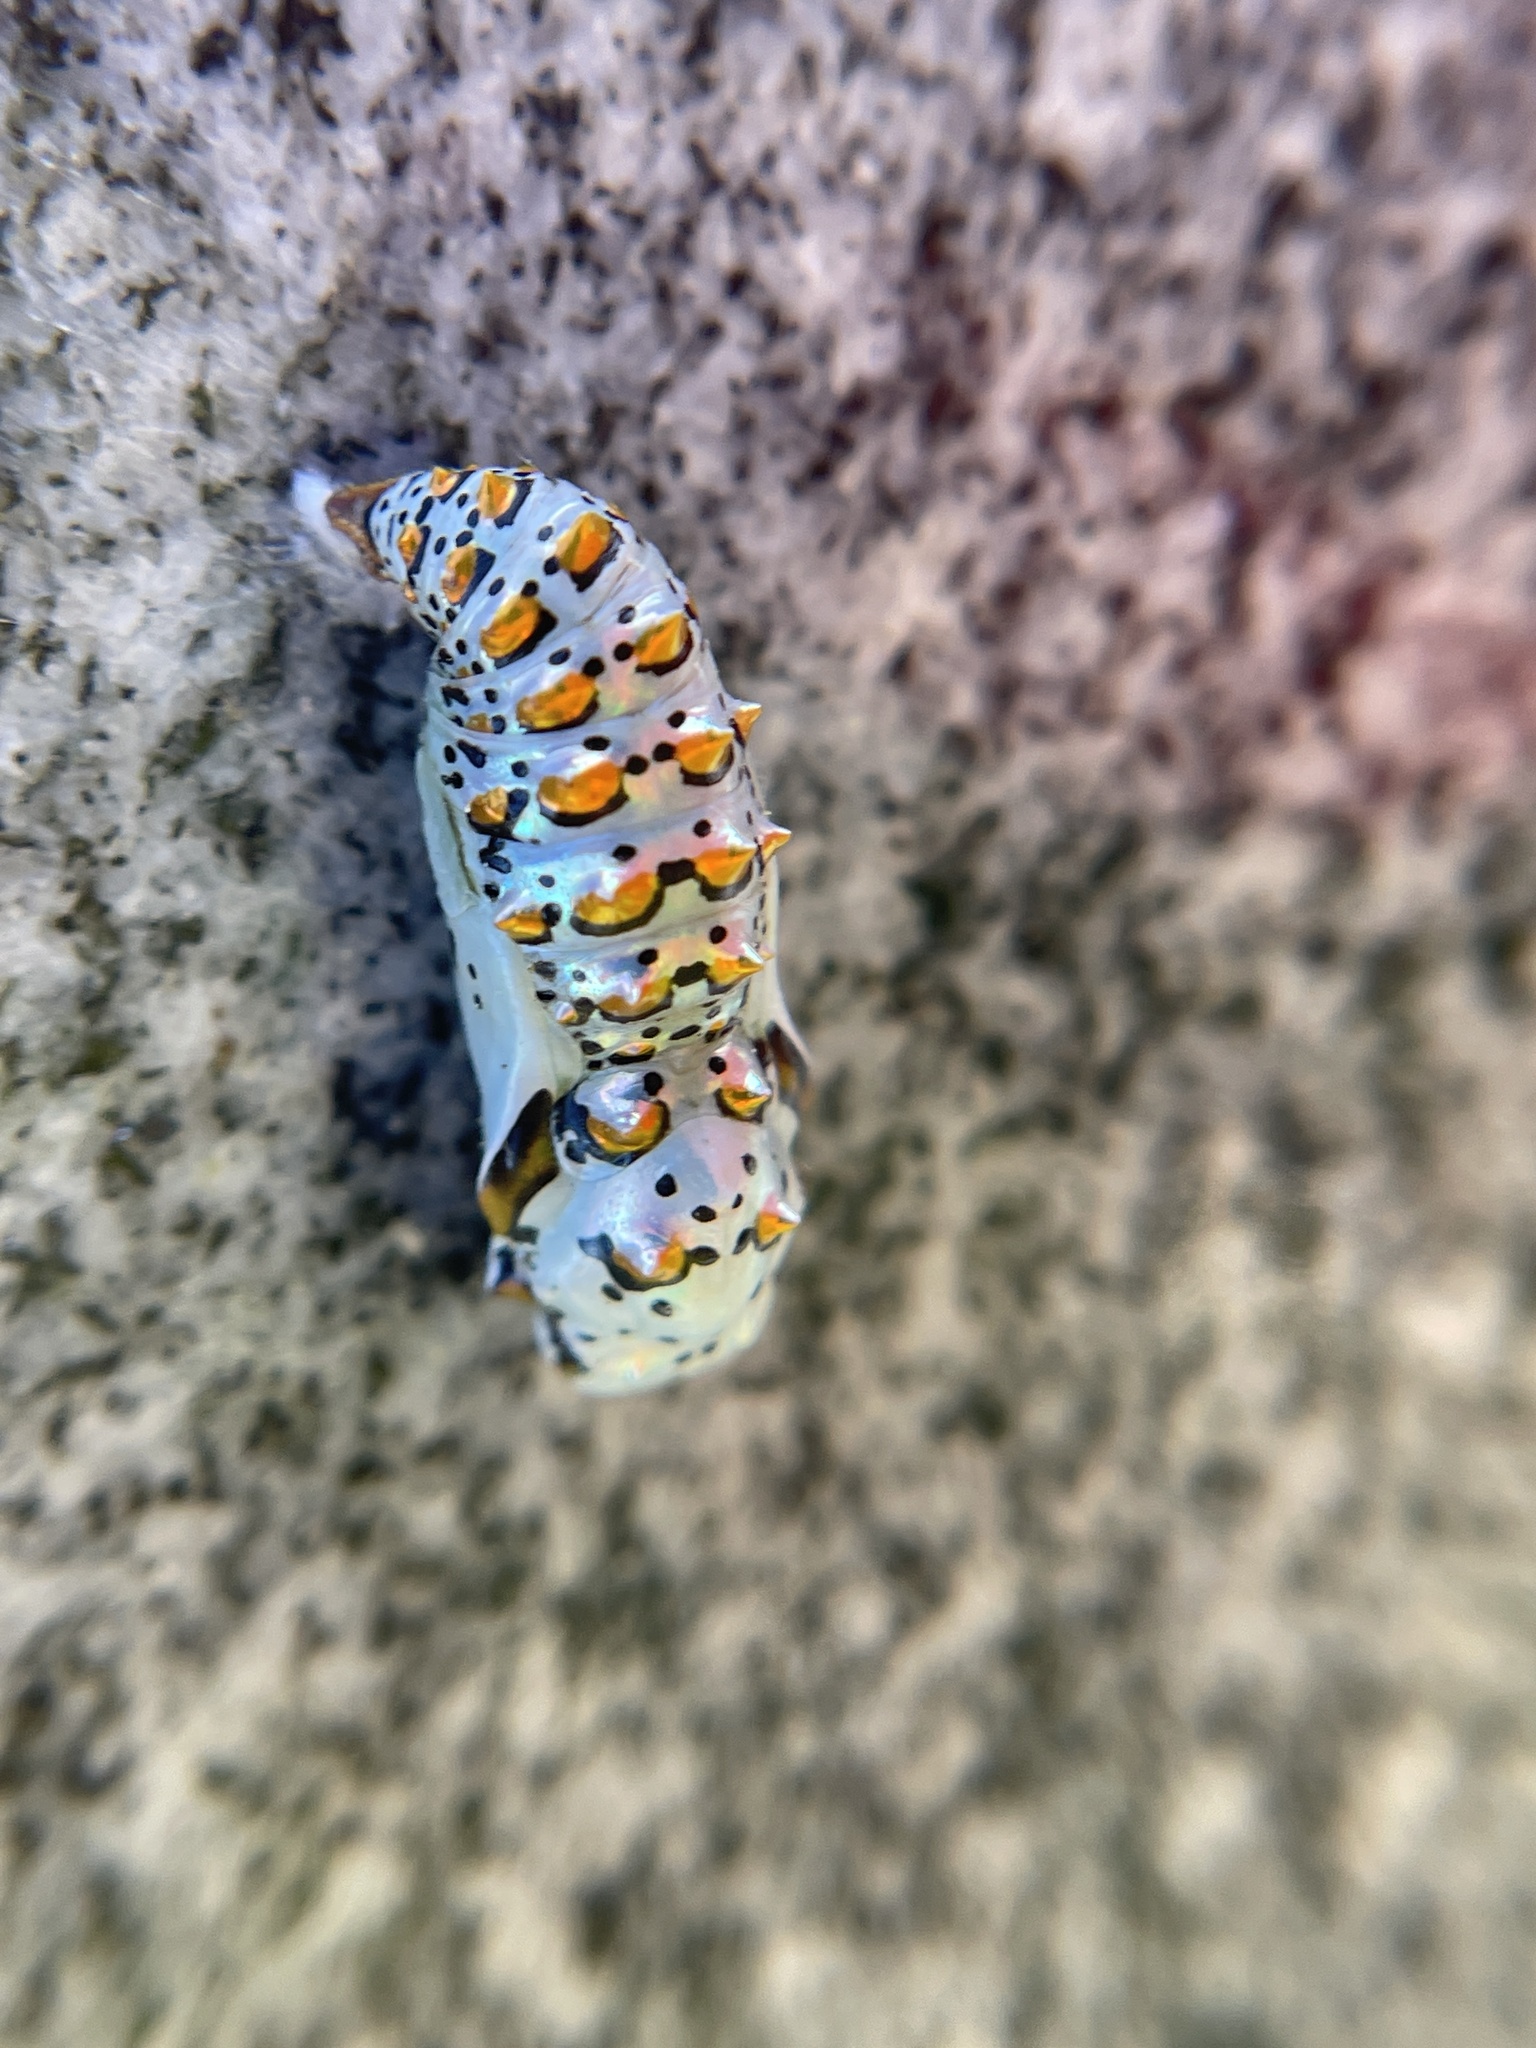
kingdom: Animalia
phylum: Arthropoda
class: Insecta
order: Lepidoptera
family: Nymphalidae
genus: Euptoieta
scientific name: Euptoieta claudia
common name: Variegated fritillary
